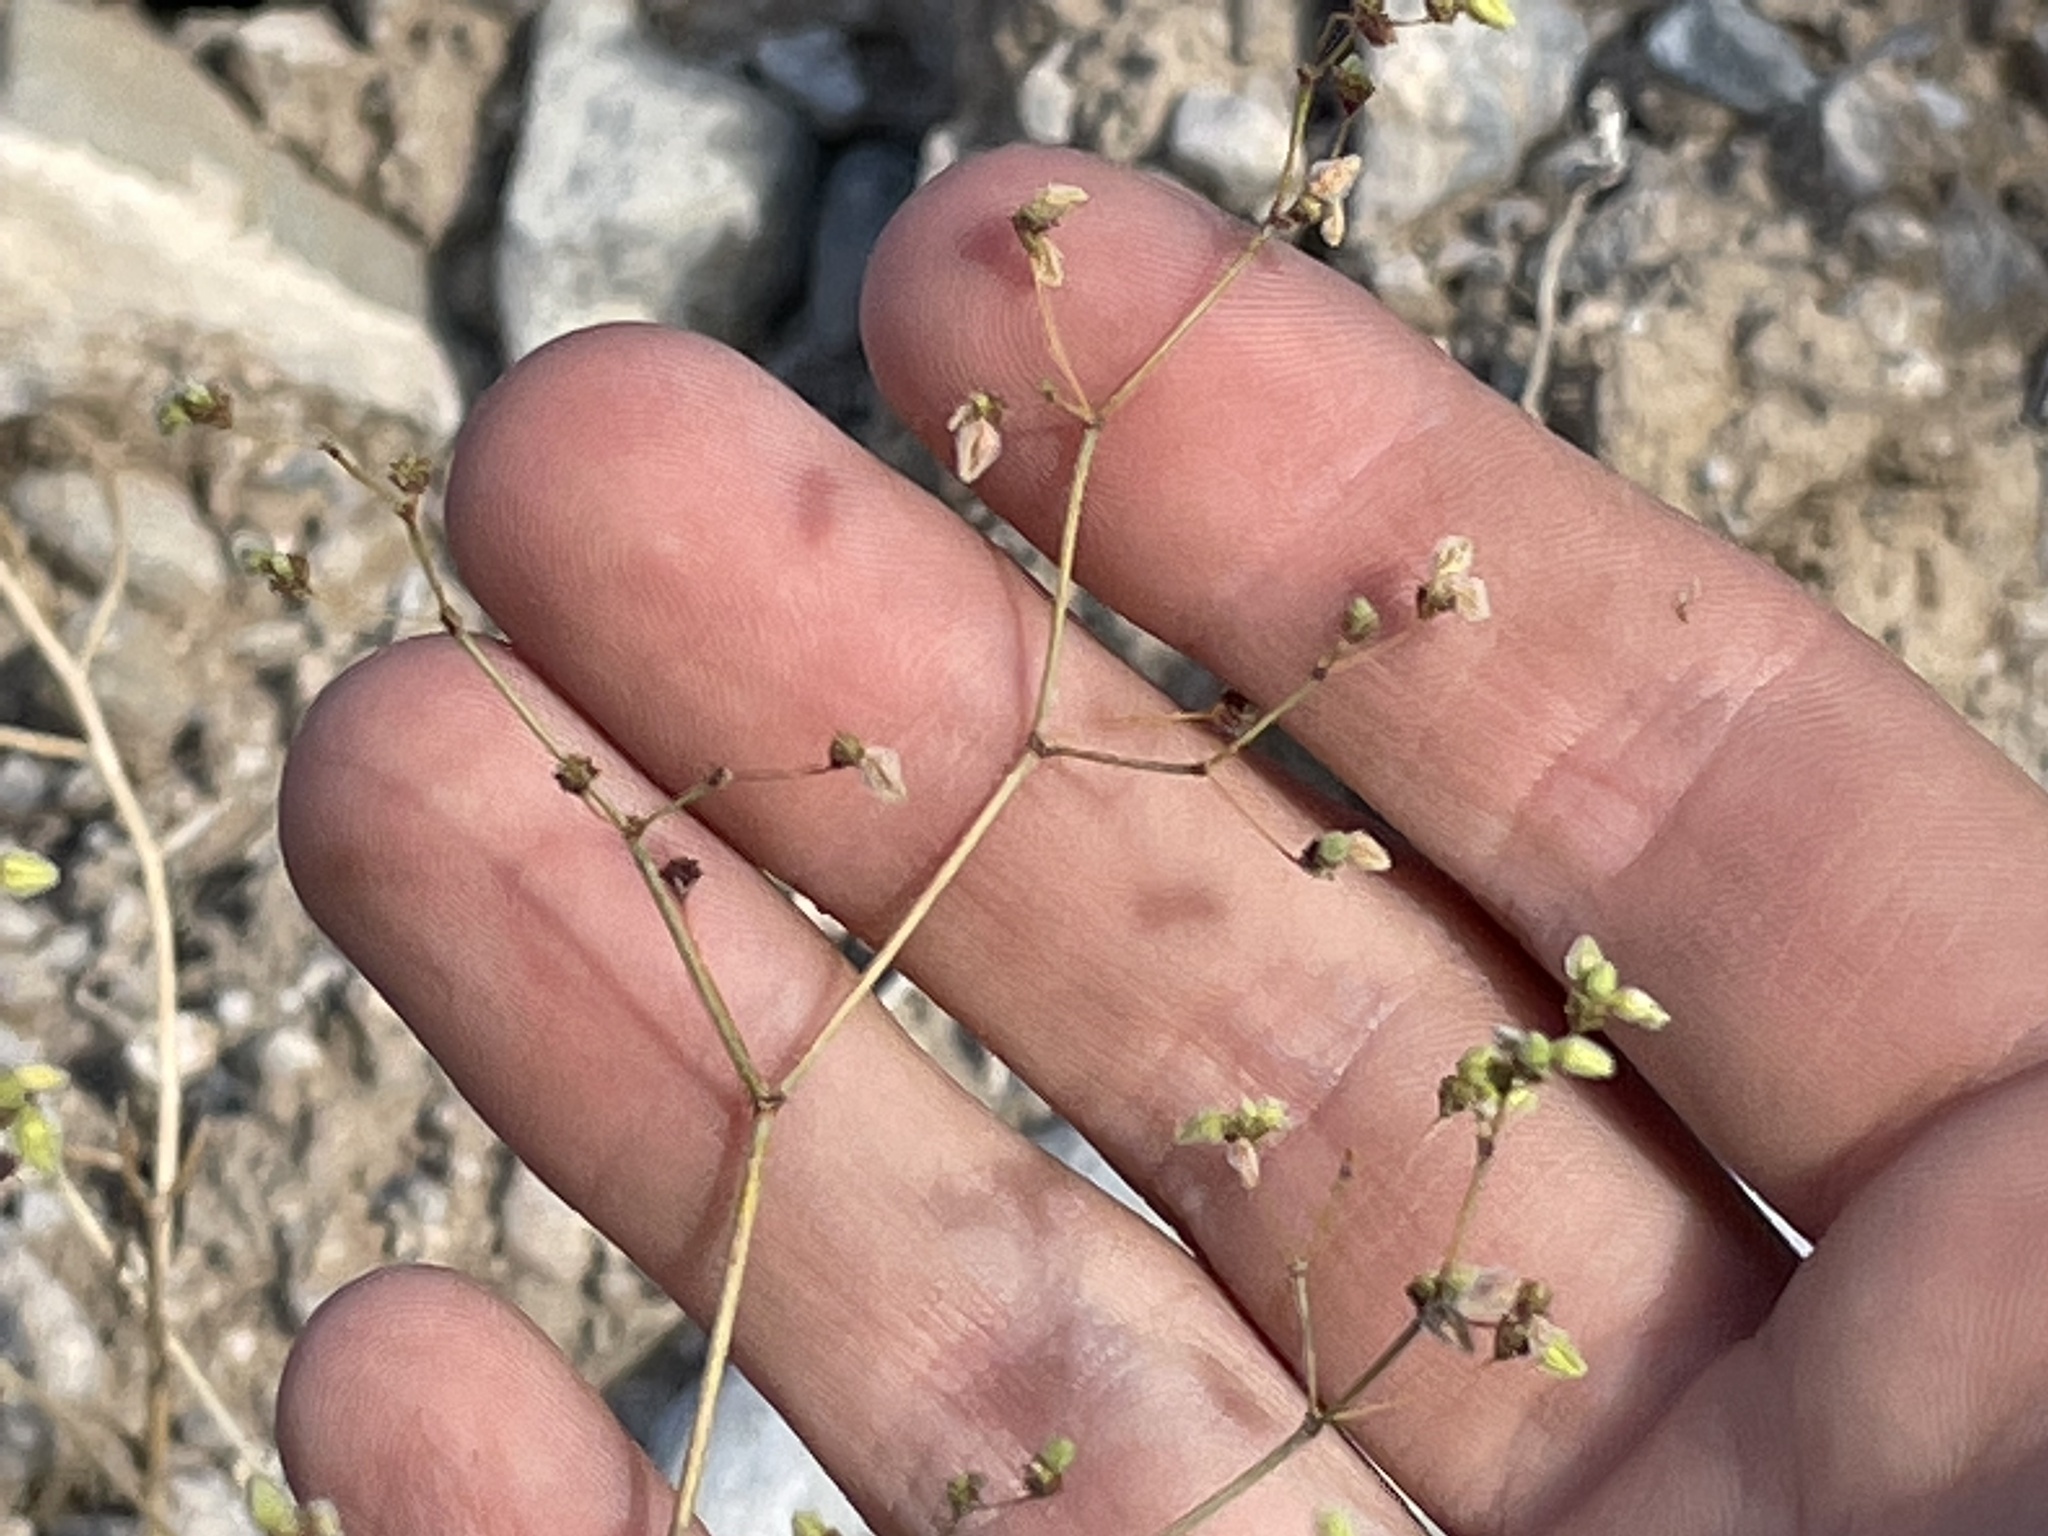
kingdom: Plantae
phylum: Tracheophyta
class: Magnoliopsida
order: Caryophyllales
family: Polygonaceae
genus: Eriogonum
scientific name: Eriogonum inflatum
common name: Desert trumpet
